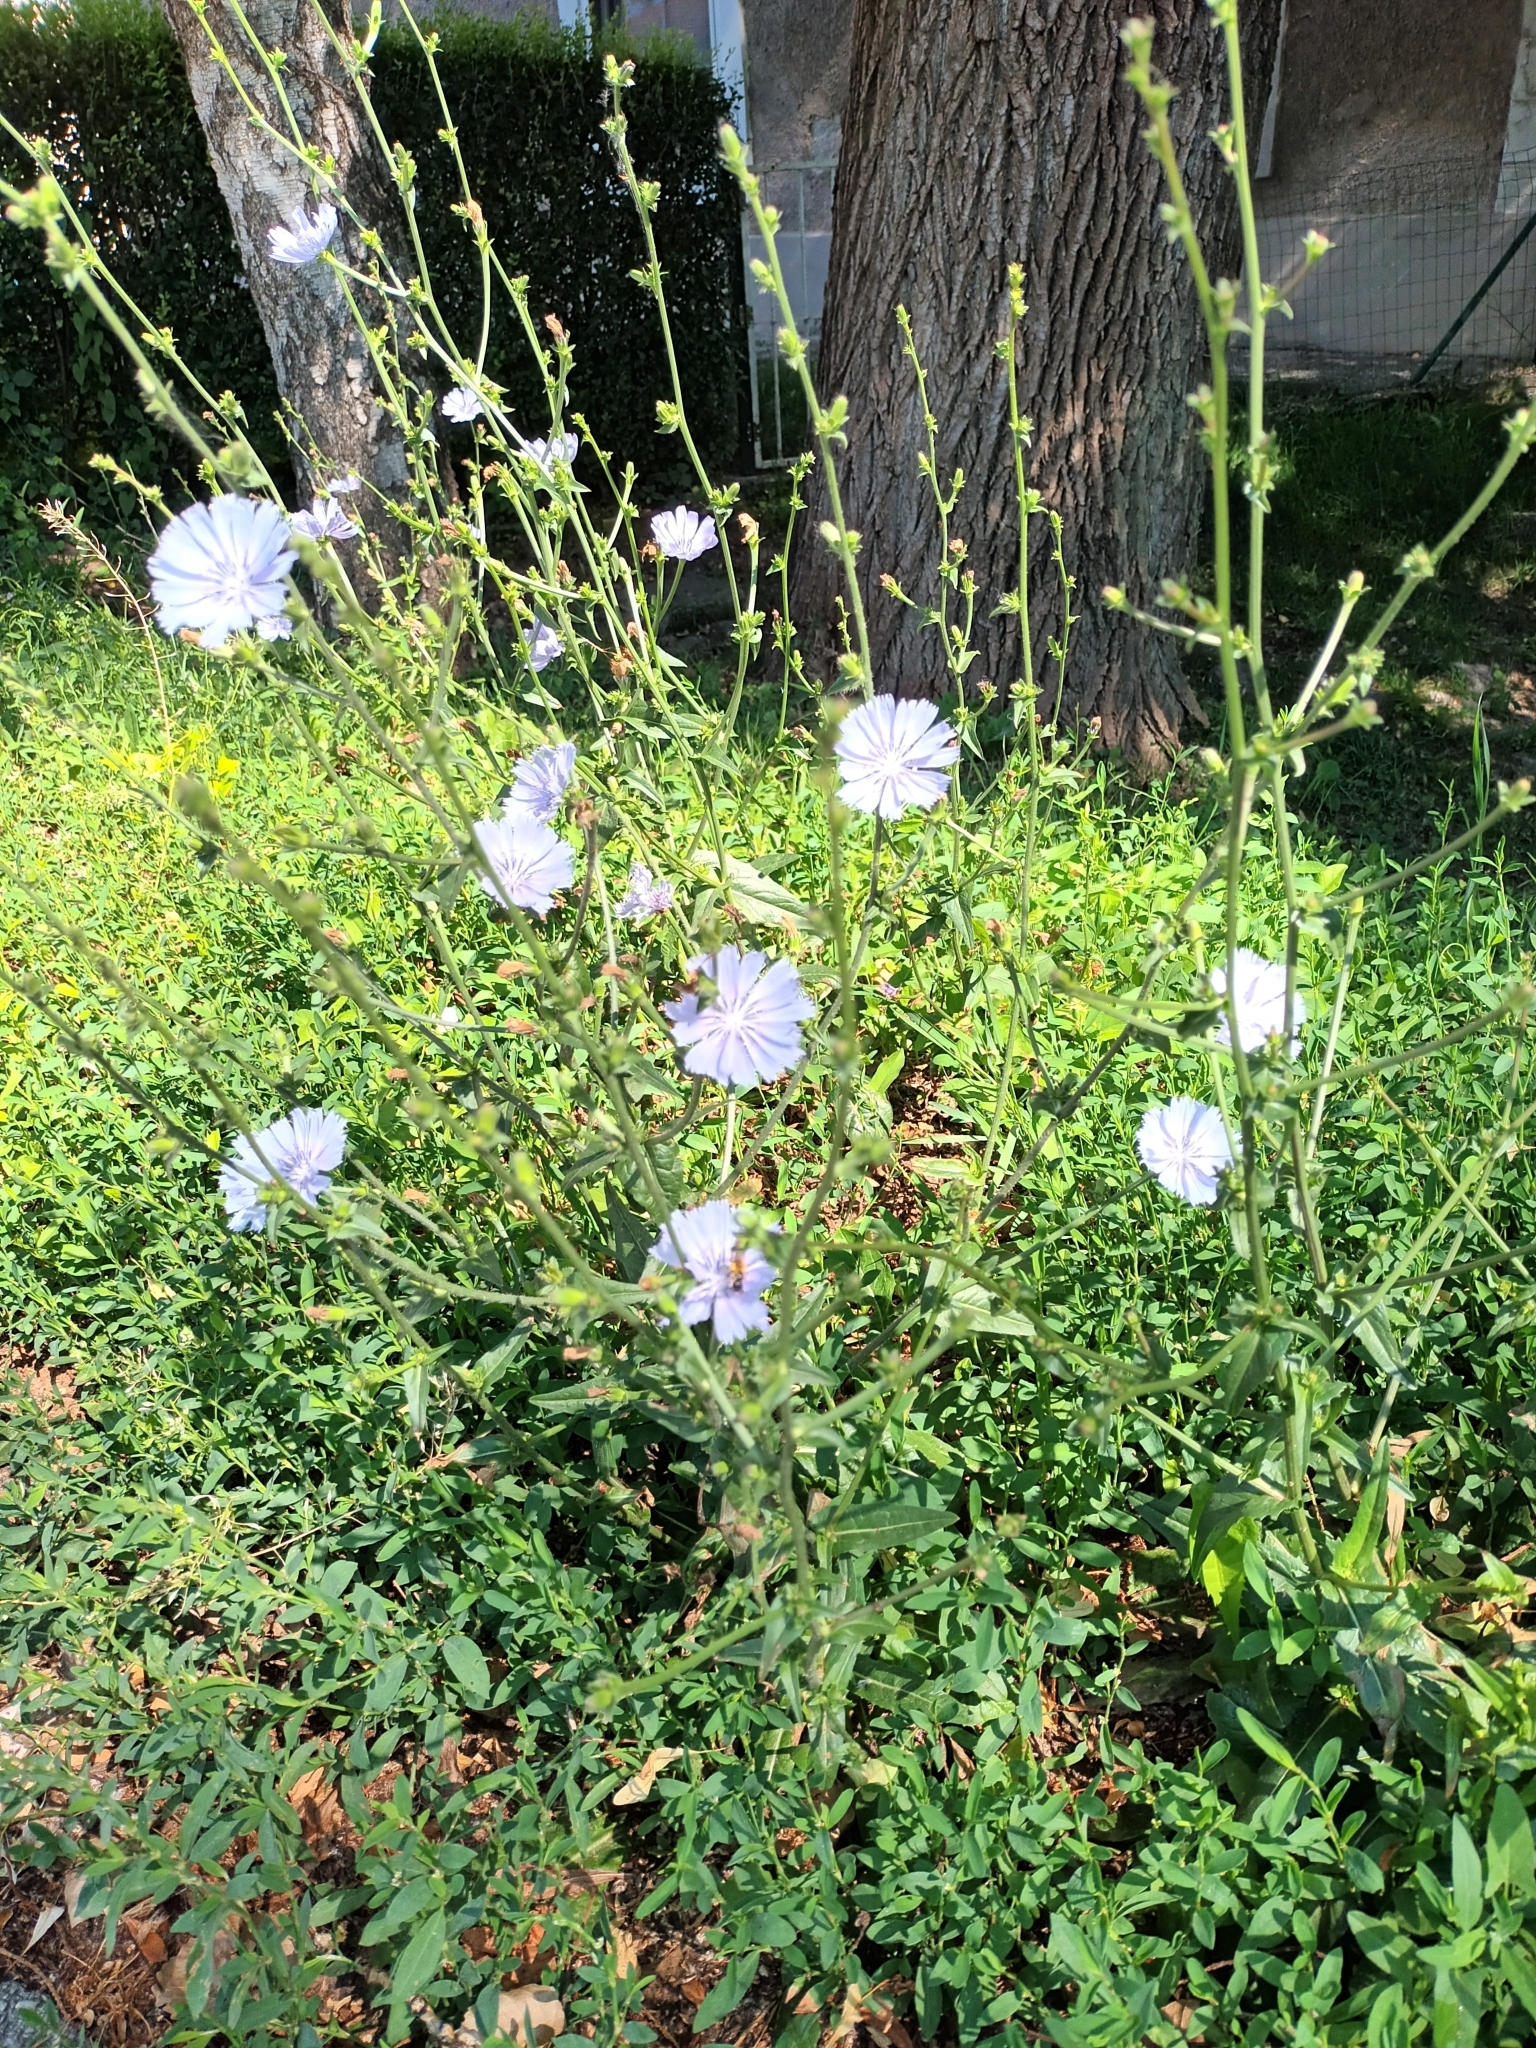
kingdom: Plantae
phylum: Tracheophyta
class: Magnoliopsida
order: Asterales
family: Asteraceae
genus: Cichorium
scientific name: Cichorium intybus
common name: Chicory
